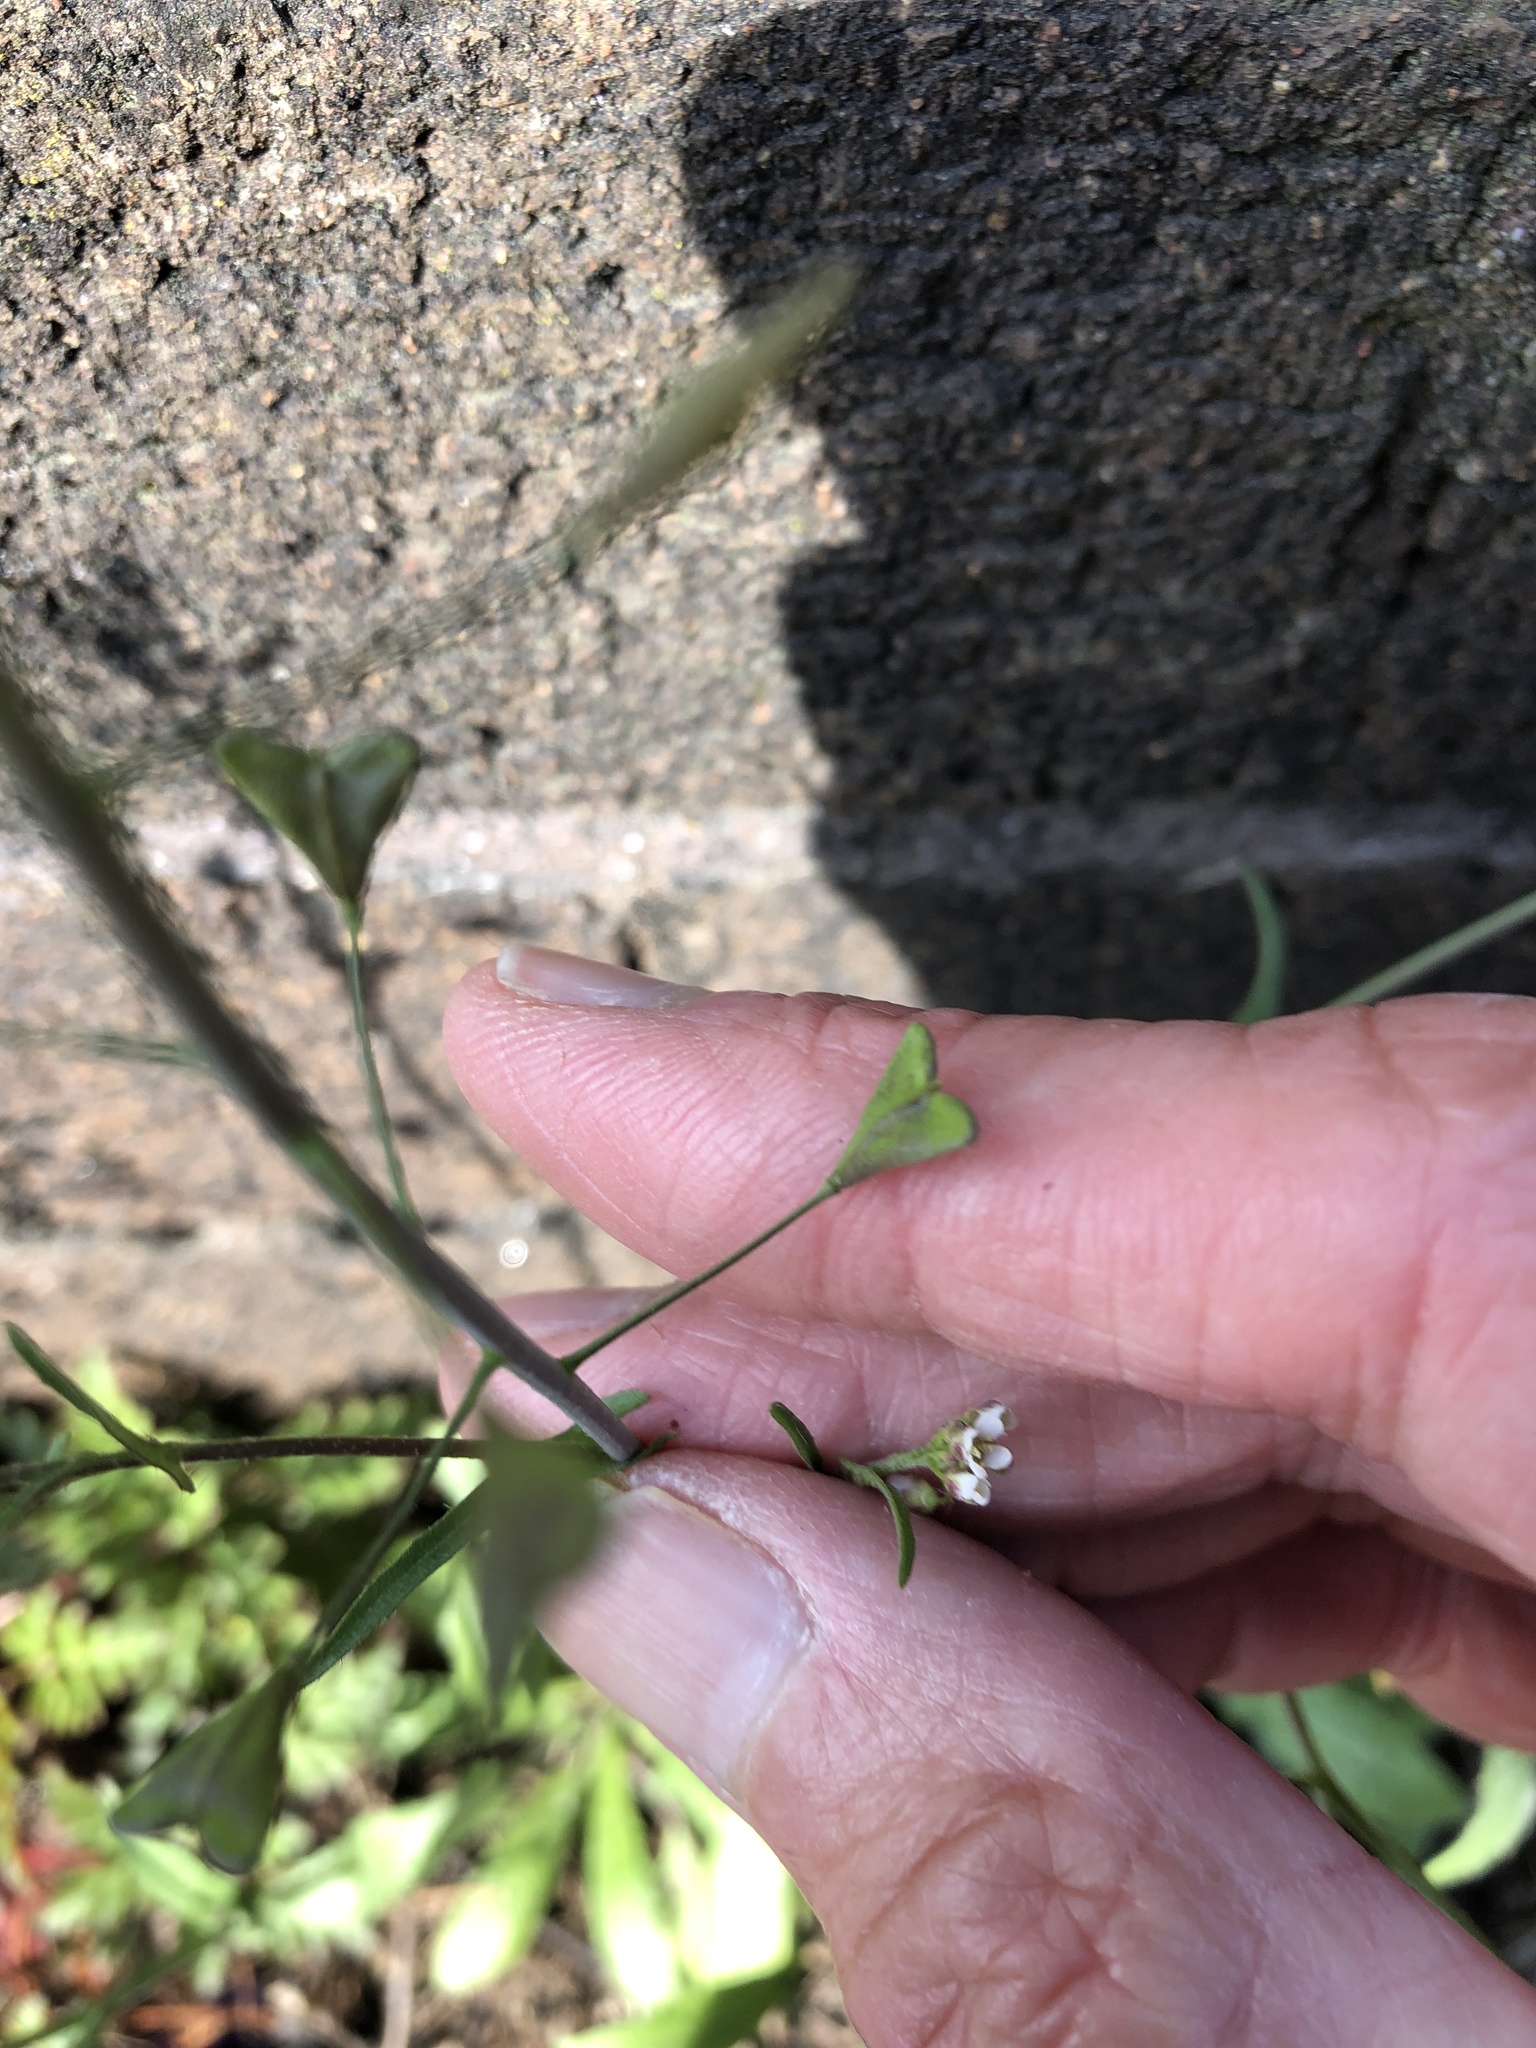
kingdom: Plantae
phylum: Tracheophyta
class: Magnoliopsida
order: Brassicales
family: Brassicaceae
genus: Capsella
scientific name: Capsella bursa-pastoris
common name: Shepherd's purse
